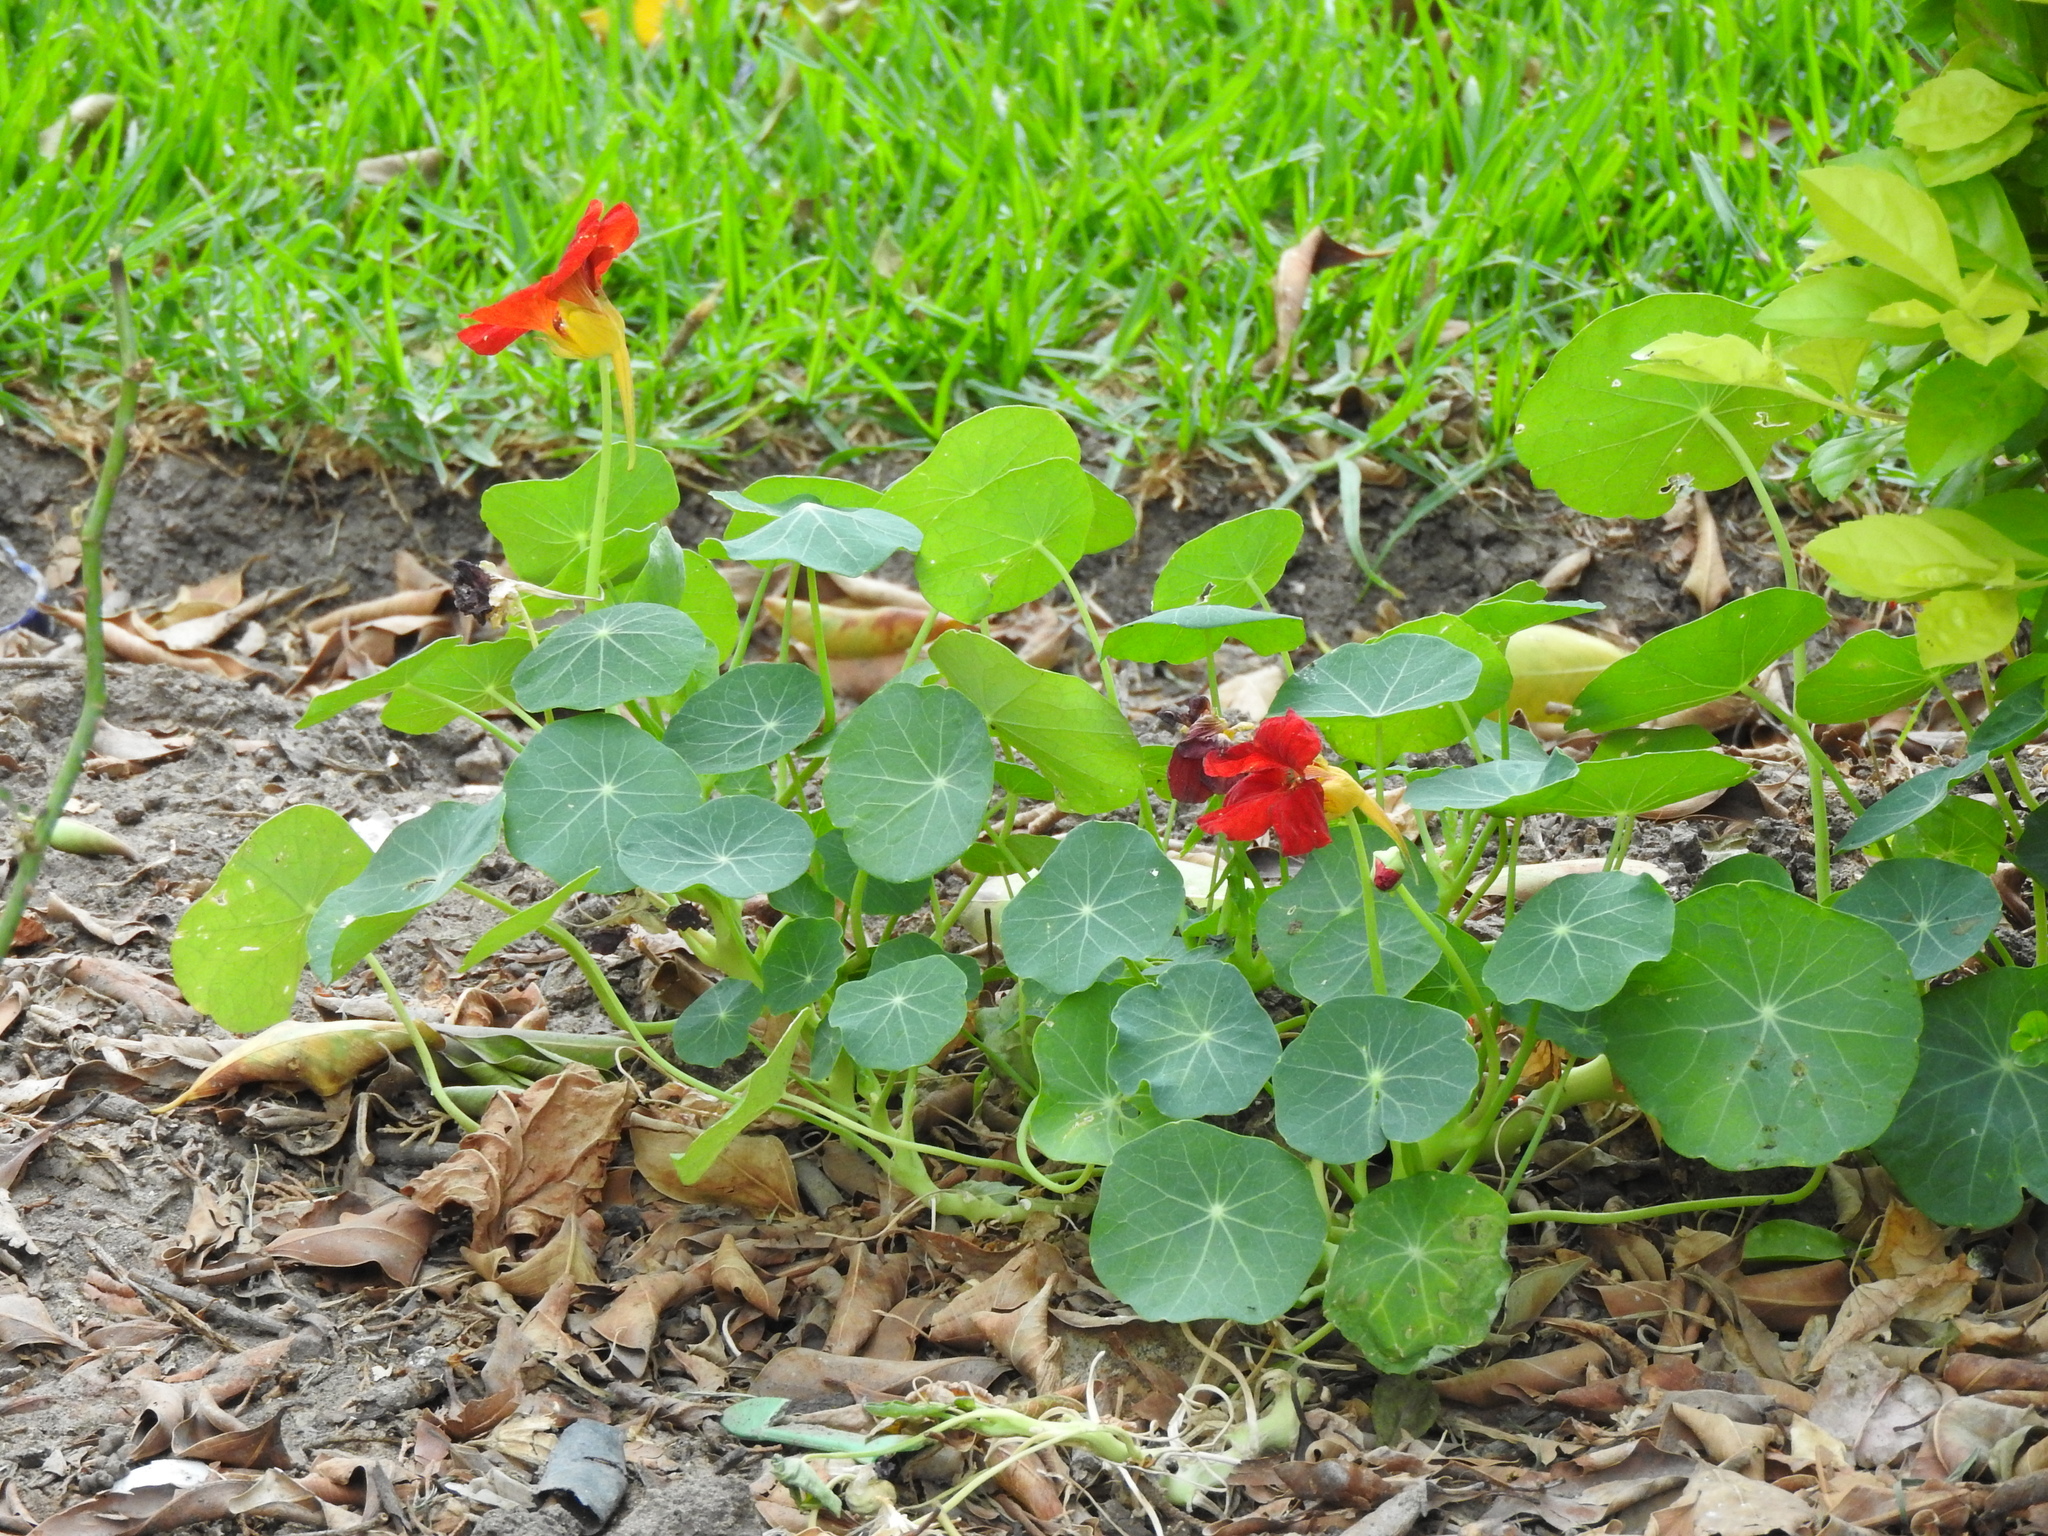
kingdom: Plantae
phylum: Tracheophyta
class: Magnoliopsida
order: Brassicales
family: Tropaeolaceae
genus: Tropaeolum
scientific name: Tropaeolum majus
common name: Nasturtium
